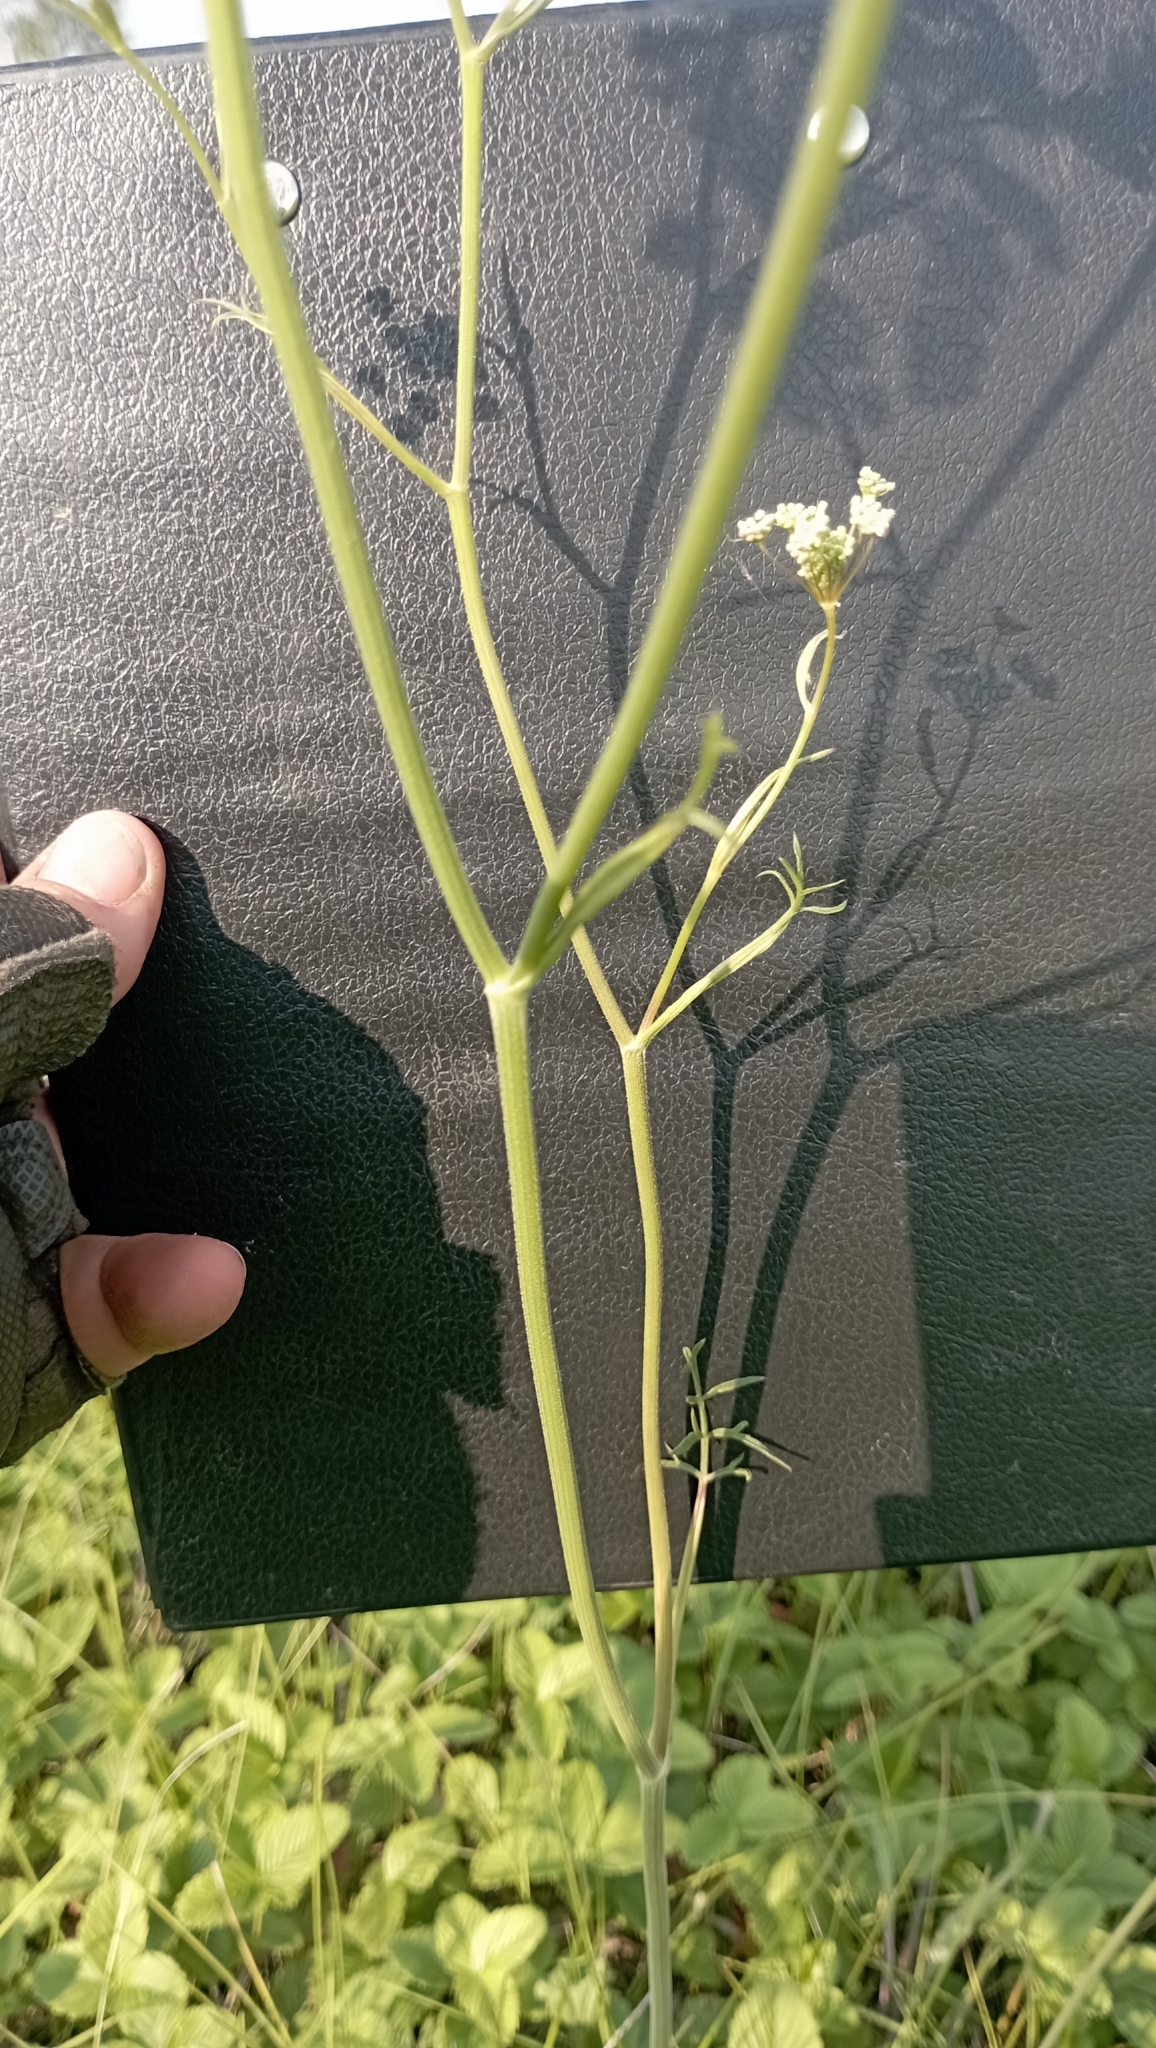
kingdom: Plantae
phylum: Tracheophyta
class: Magnoliopsida
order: Apiales
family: Apiaceae
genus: Pimpinella
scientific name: Pimpinella saxifraga
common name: Burnet-saxifrage
